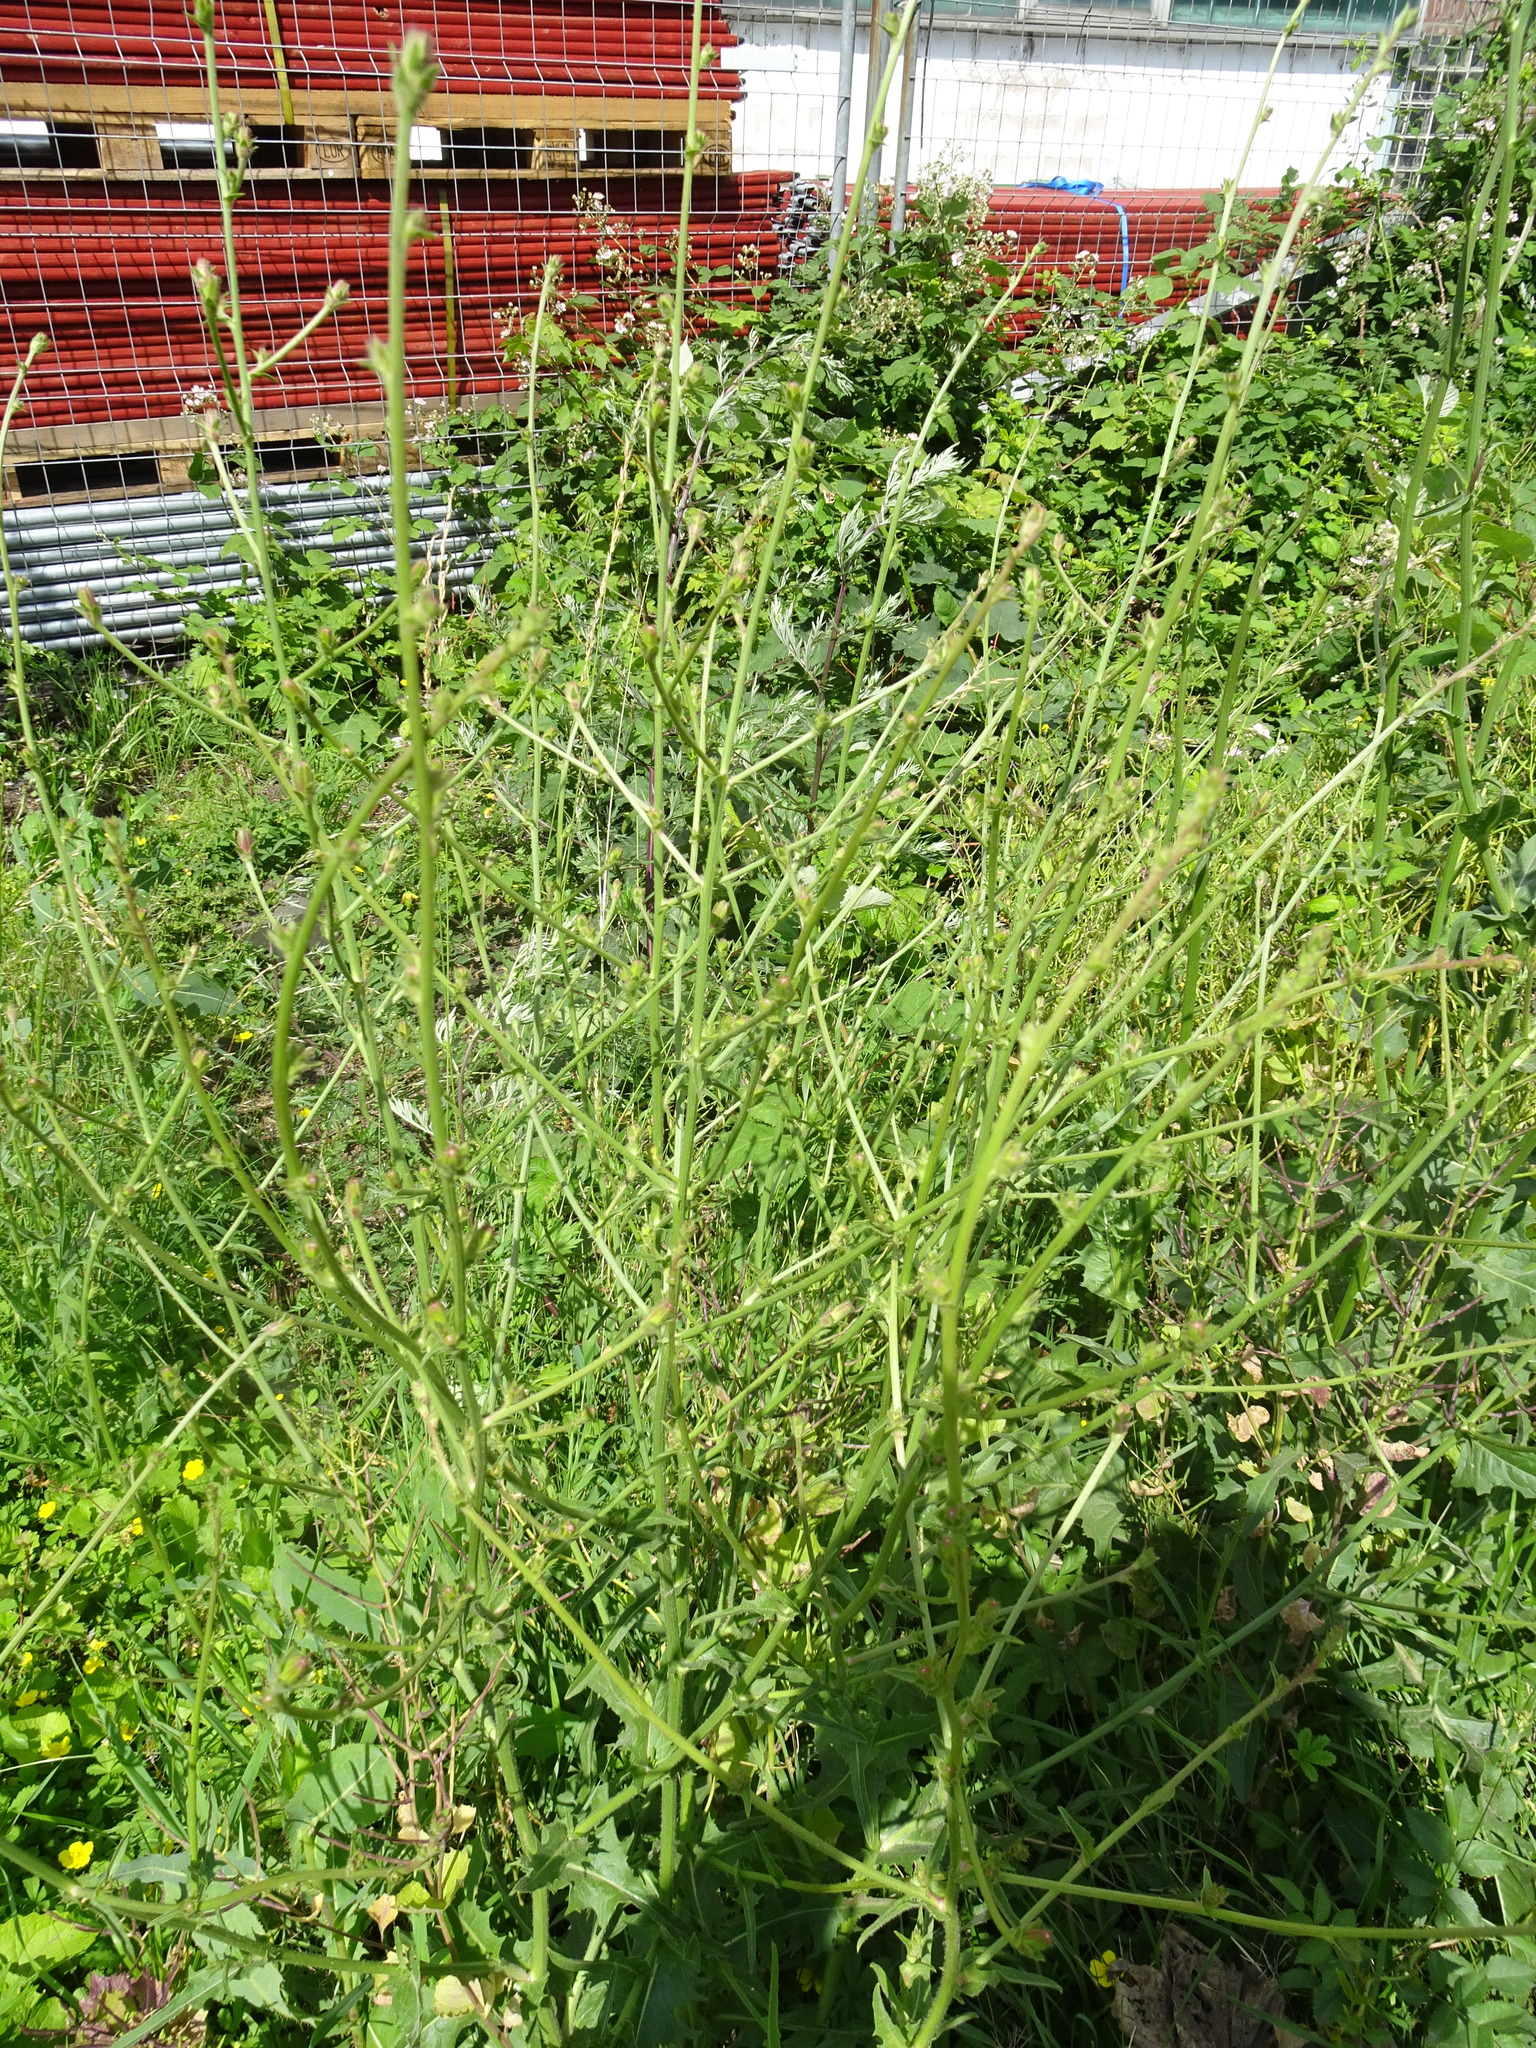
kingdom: Plantae
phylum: Tracheophyta
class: Magnoliopsida
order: Asterales
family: Asteraceae
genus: Cichorium
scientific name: Cichorium intybus
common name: Chicory
